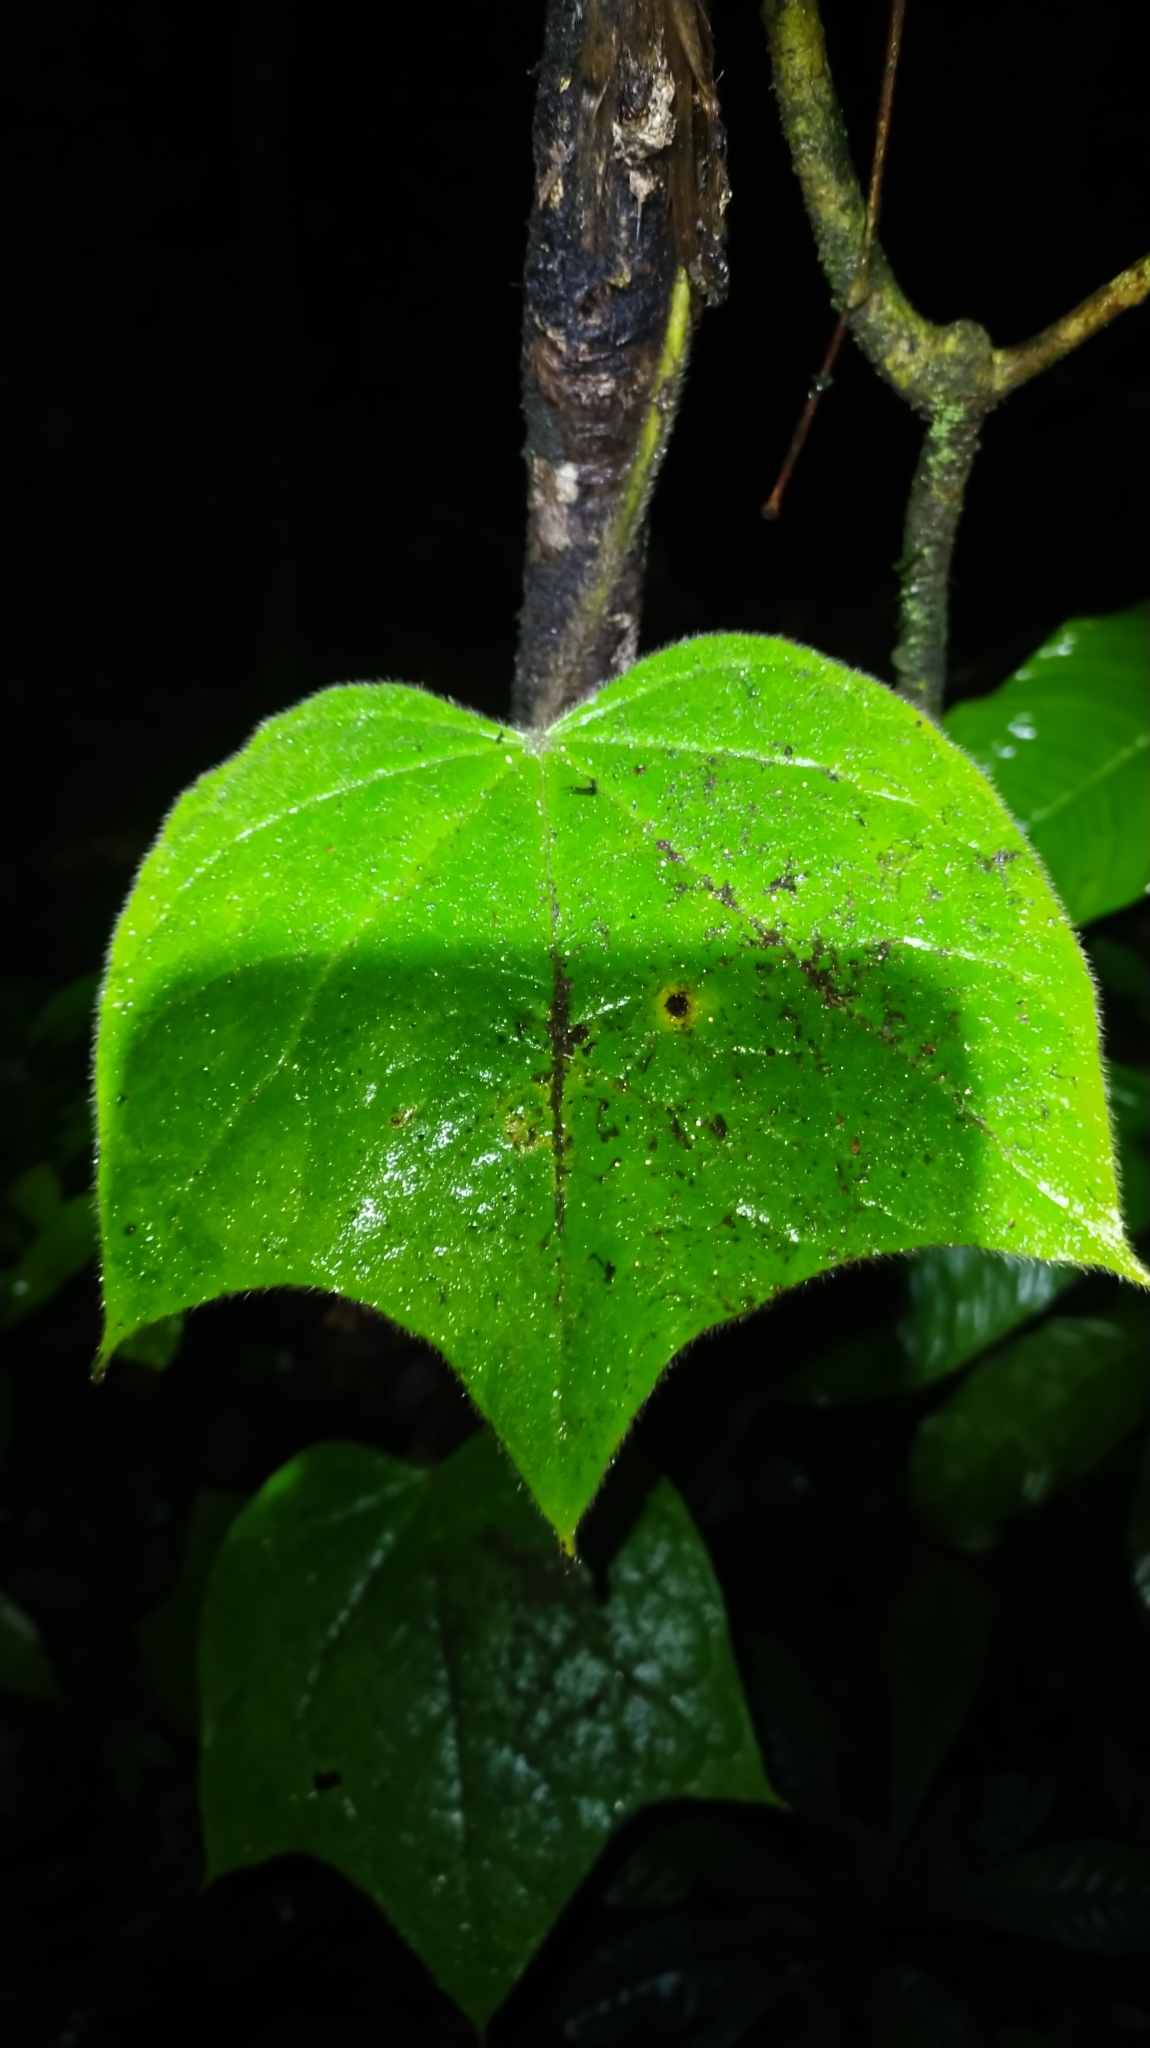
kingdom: Plantae
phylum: Tracheophyta
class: Magnoliopsida
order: Ranunculales
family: Menispermaceae
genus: Disciphania
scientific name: Disciphania lobata
